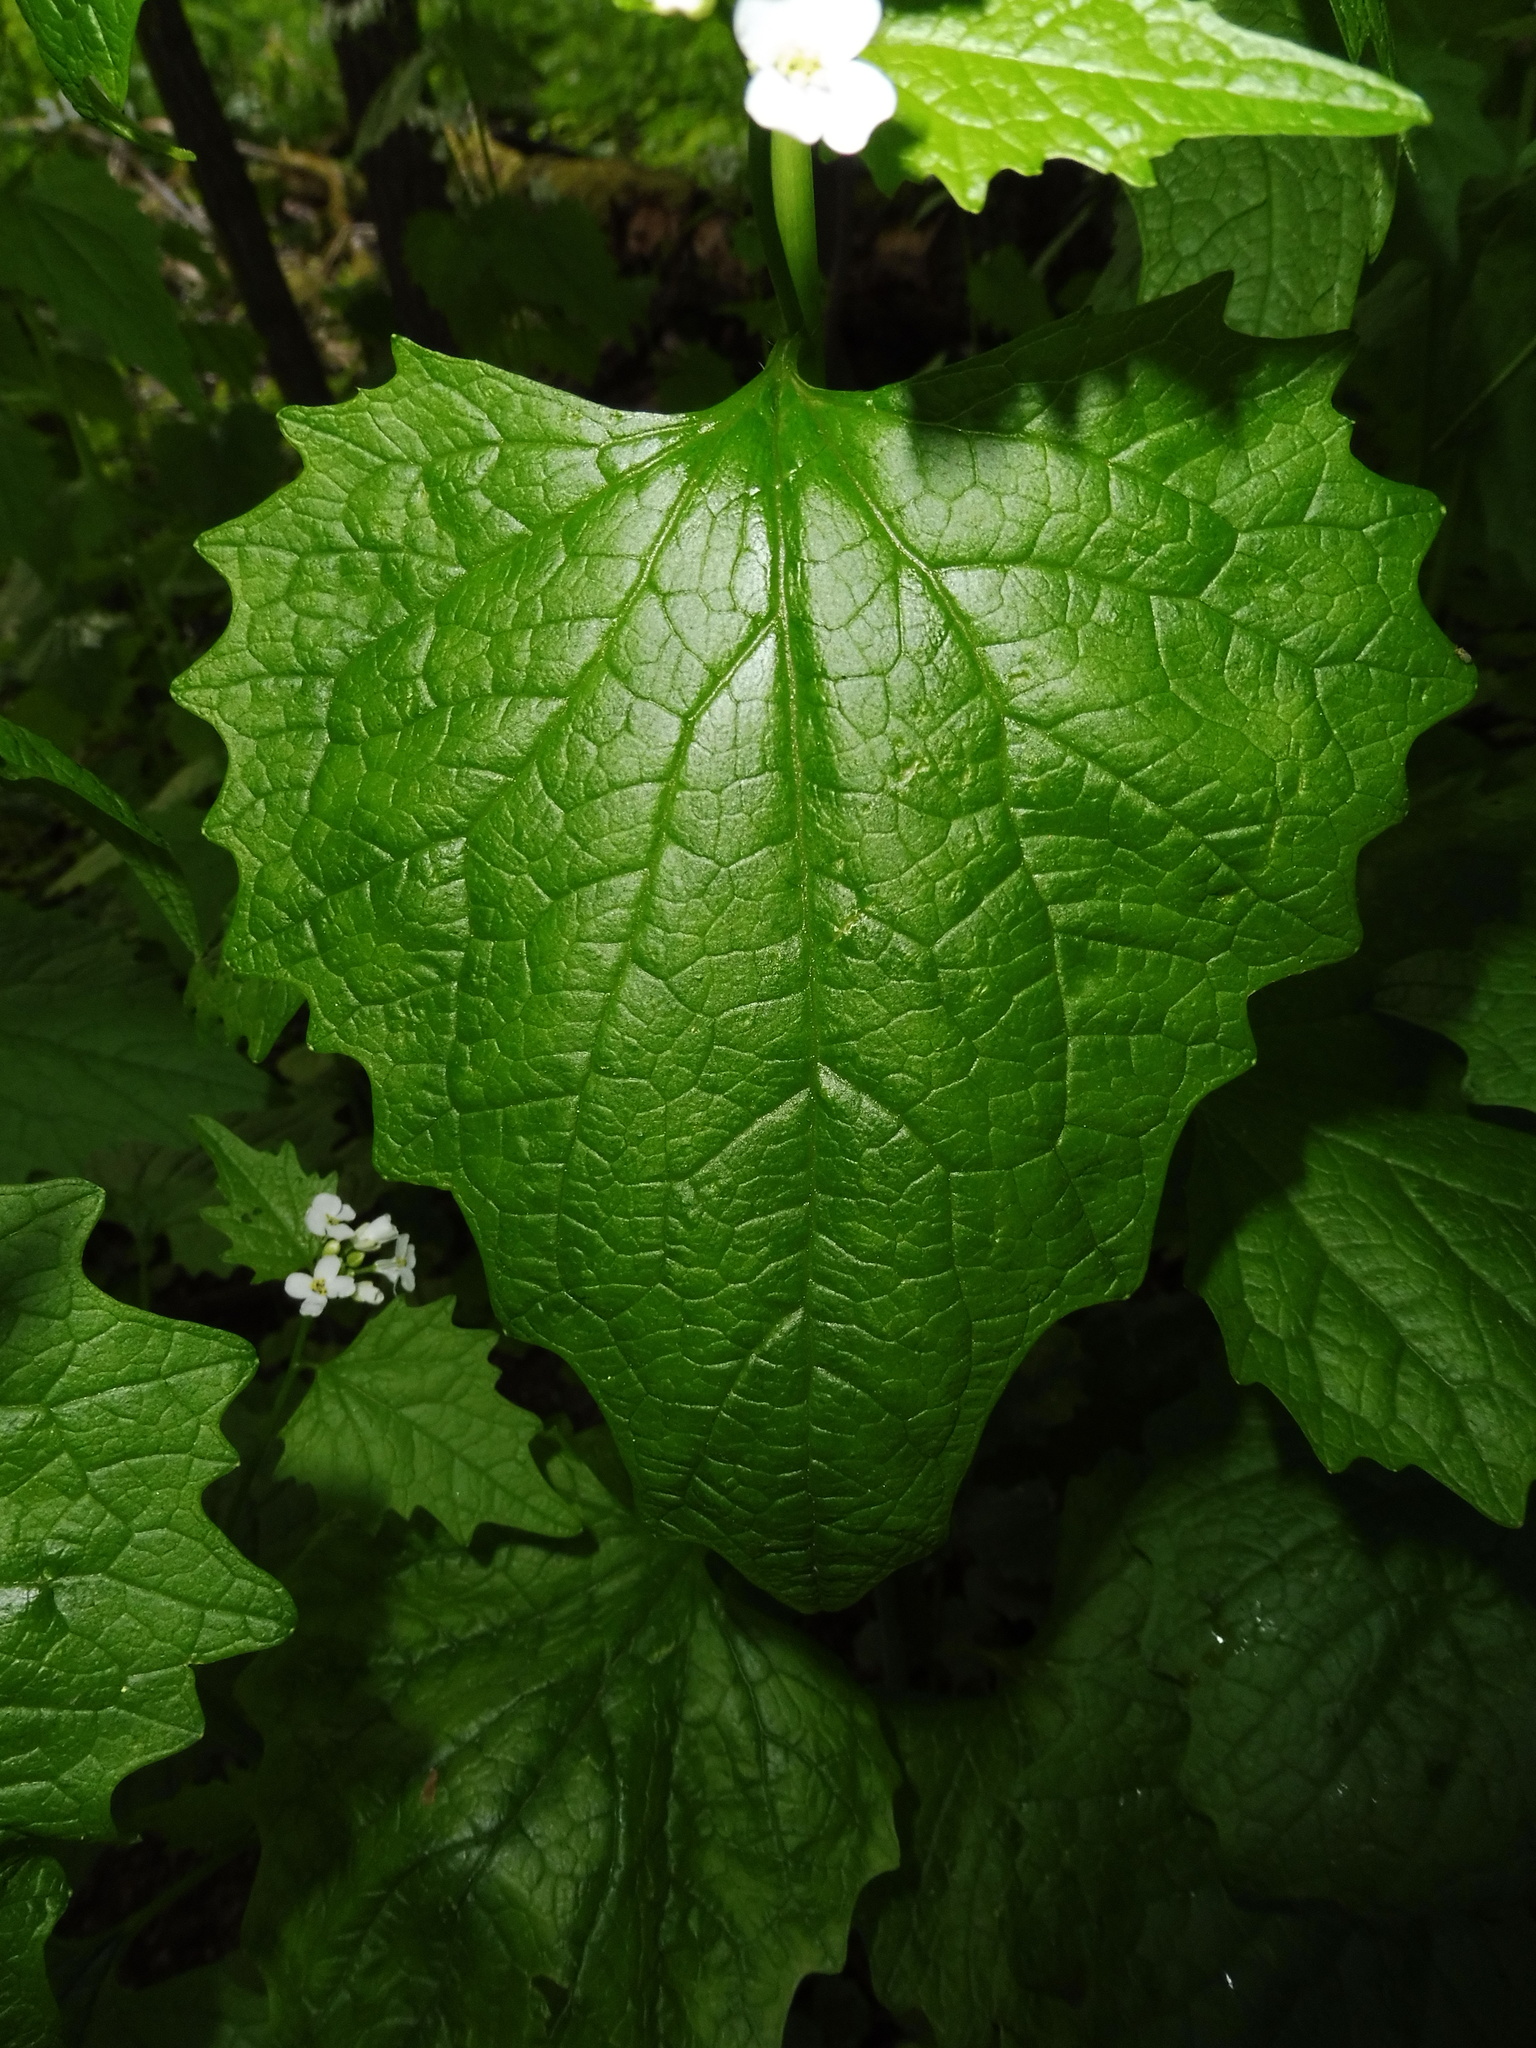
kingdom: Plantae
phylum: Tracheophyta
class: Magnoliopsida
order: Brassicales
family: Brassicaceae
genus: Alliaria
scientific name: Alliaria petiolata
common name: Garlic mustard
